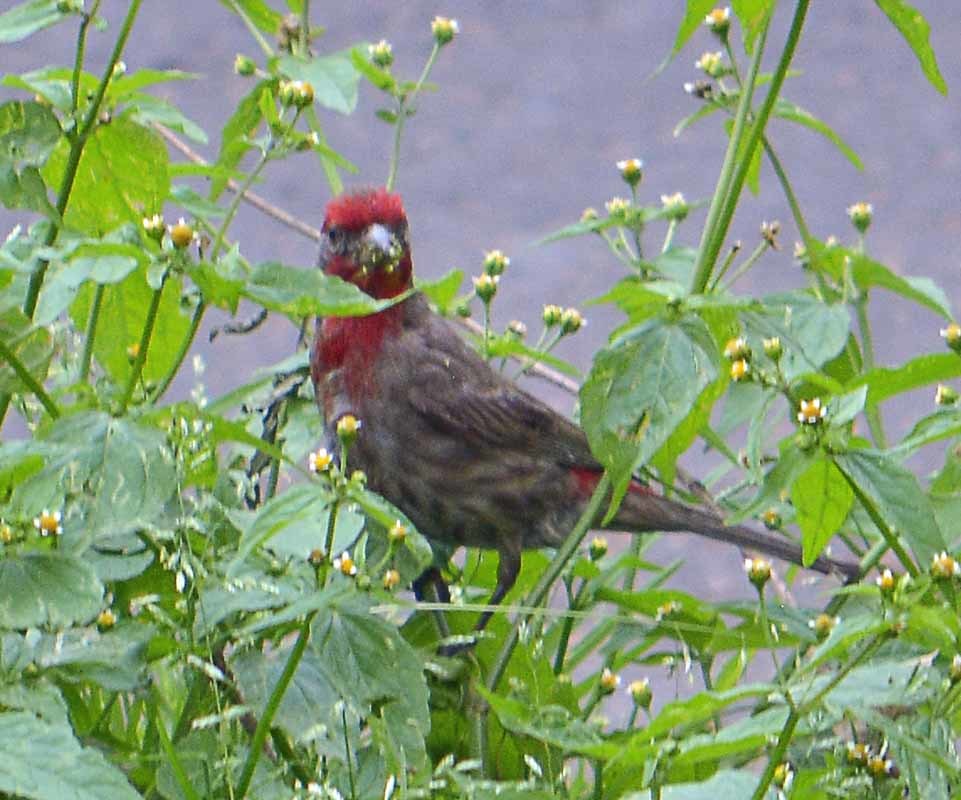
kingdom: Animalia
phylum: Chordata
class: Aves
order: Passeriformes
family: Fringillidae
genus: Haemorhous
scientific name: Haemorhous mexicanus
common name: House finch
